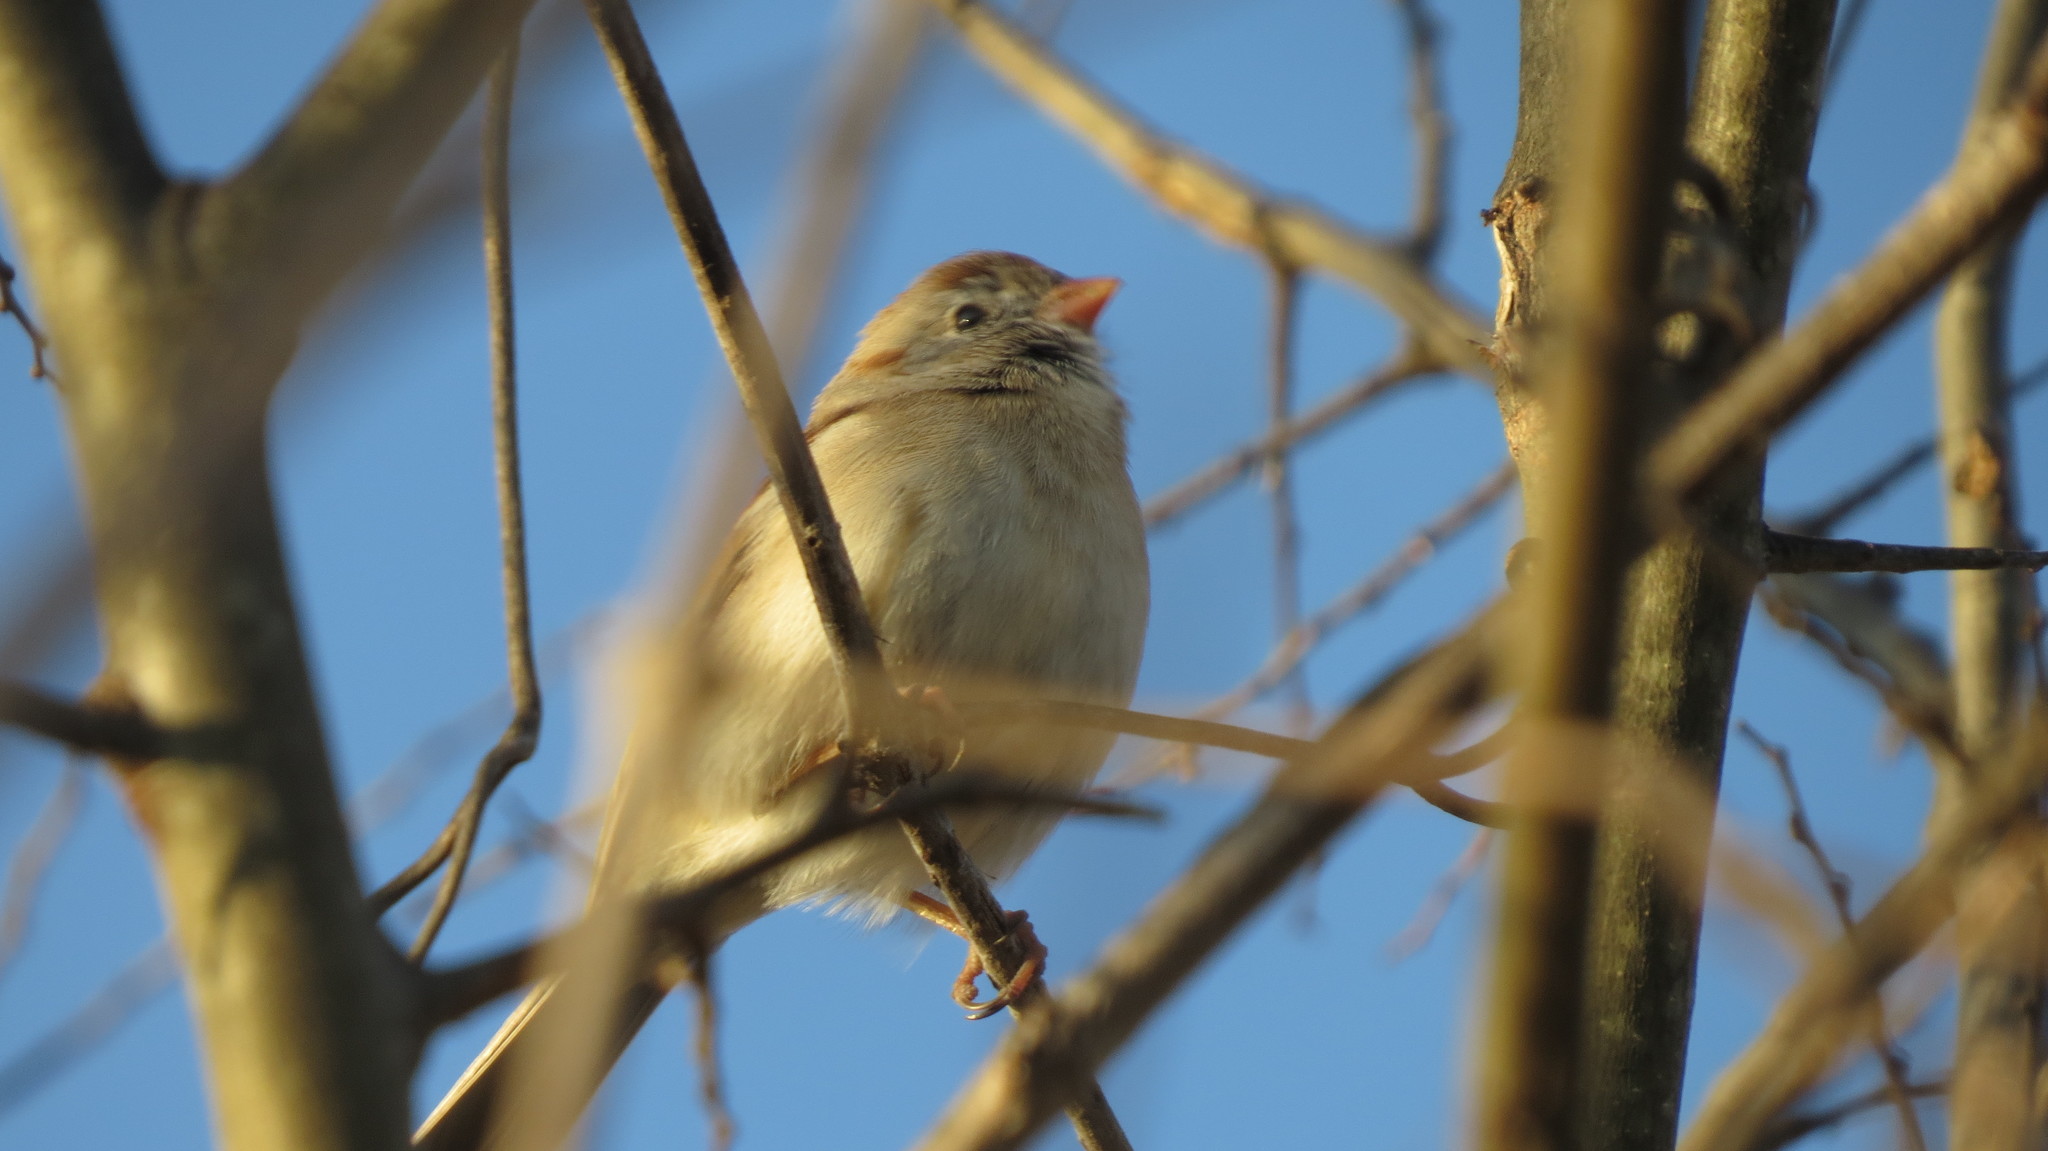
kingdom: Animalia
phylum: Chordata
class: Aves
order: Passeriformes
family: Passerellidae
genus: Spizella
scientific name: Spizella pusilla
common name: Field sparrow
